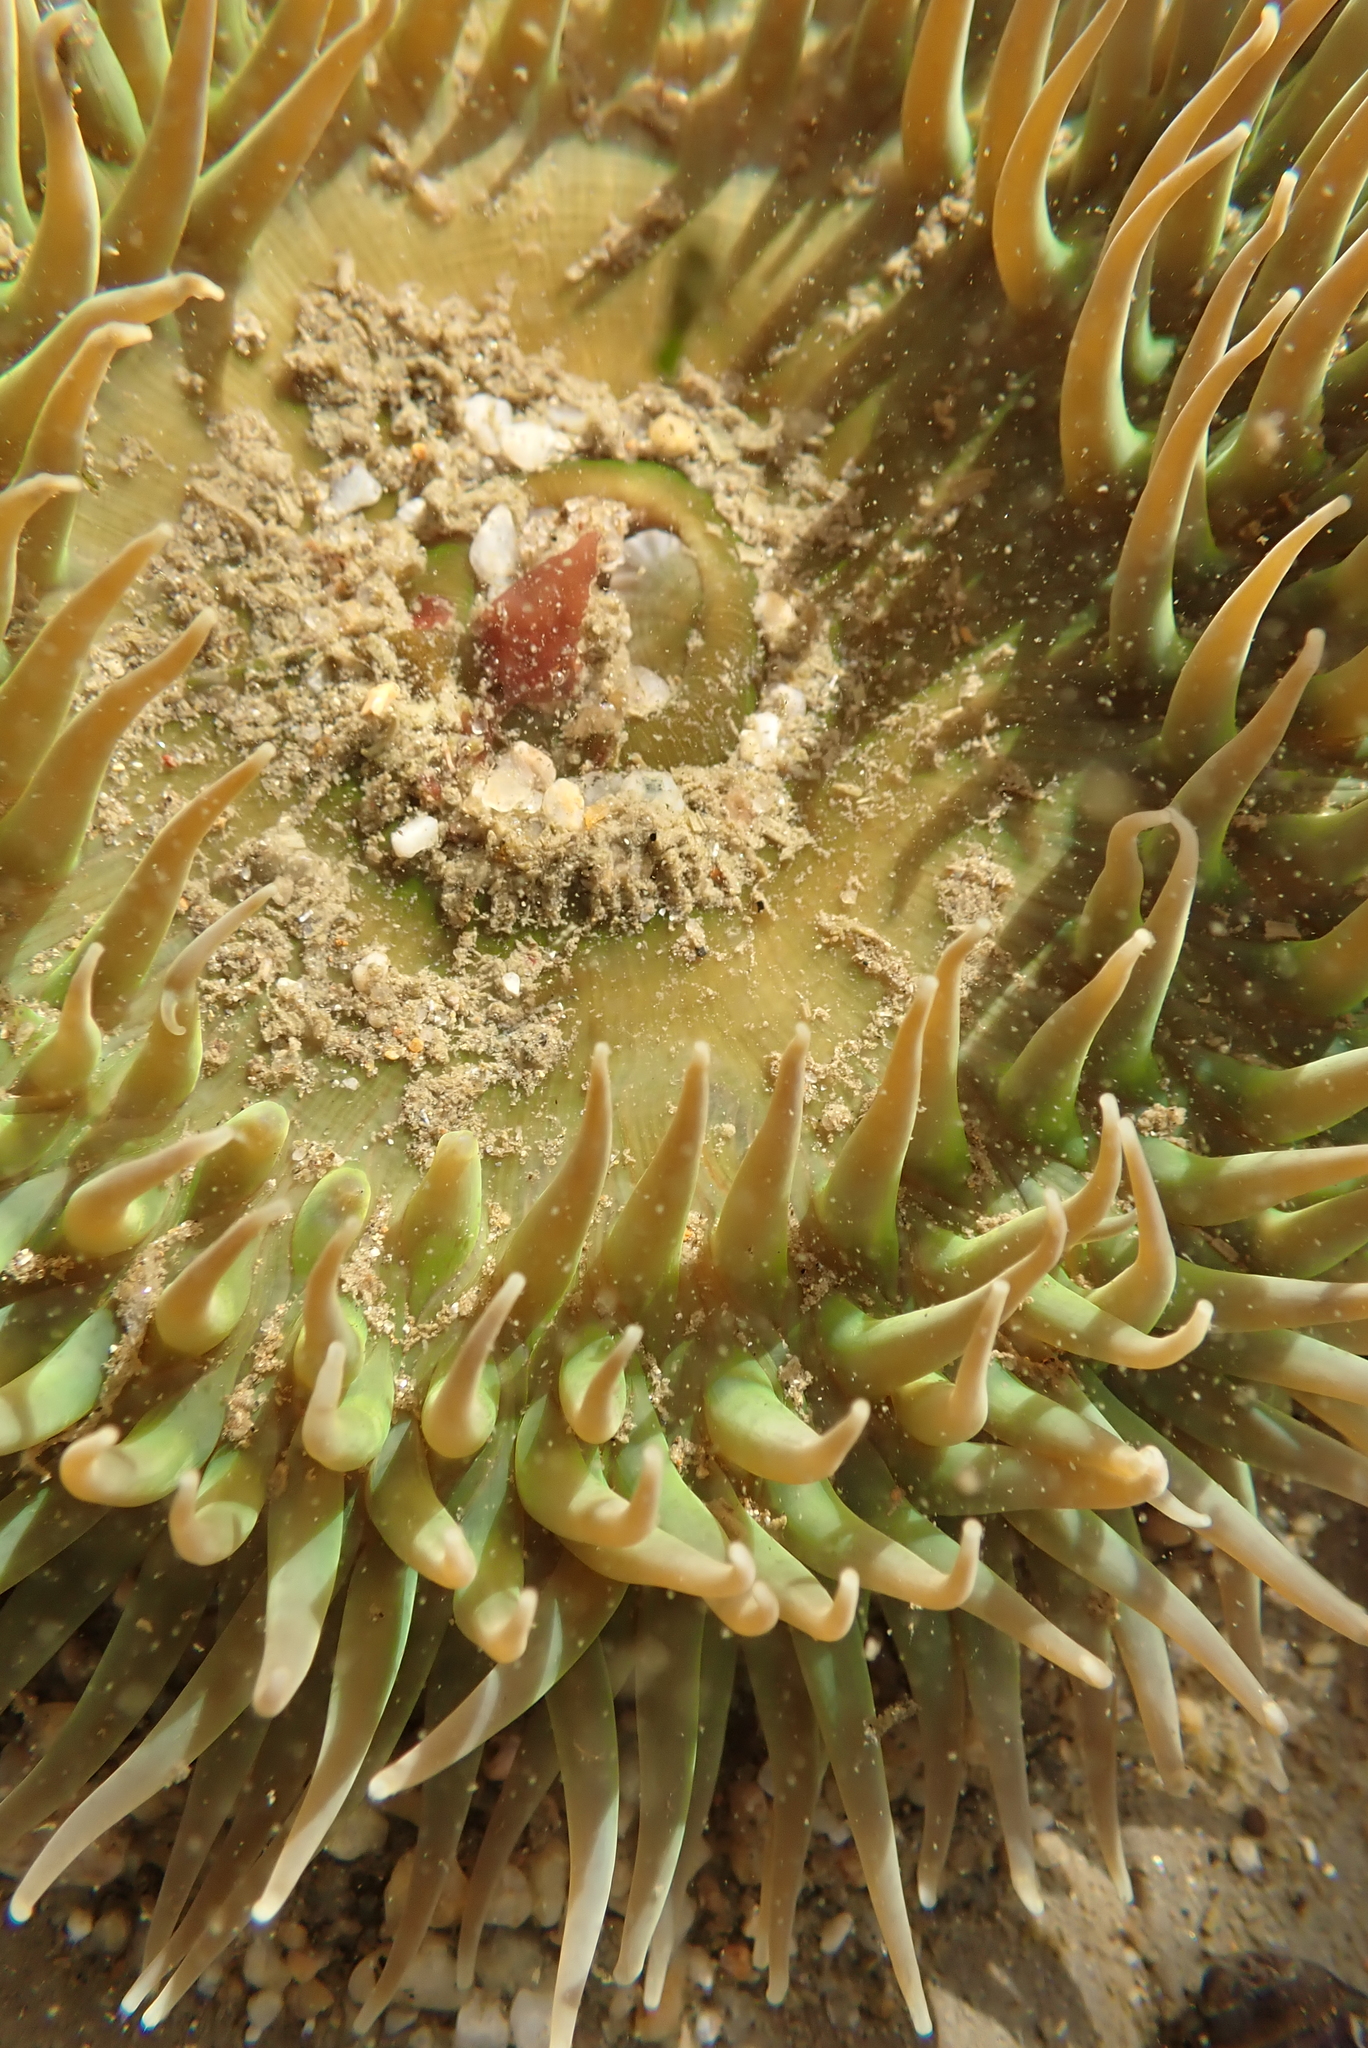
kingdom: Animalia
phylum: Cnidaria
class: Anthozoa
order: Actiniaria
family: Actiniidae
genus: Anthopleura
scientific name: Anthopleura xanthogrammica
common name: Giant green anemone
